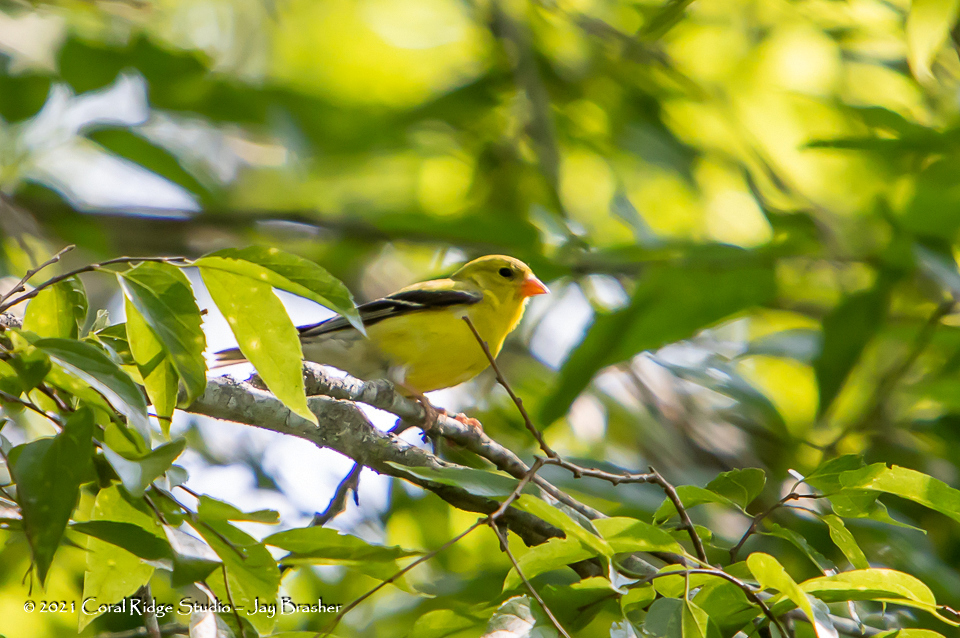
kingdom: Animalia
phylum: Chordata
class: Aves
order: Passeriformes
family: Fringillidae
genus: Spinus
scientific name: Spinus tristis
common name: American goldfinch
